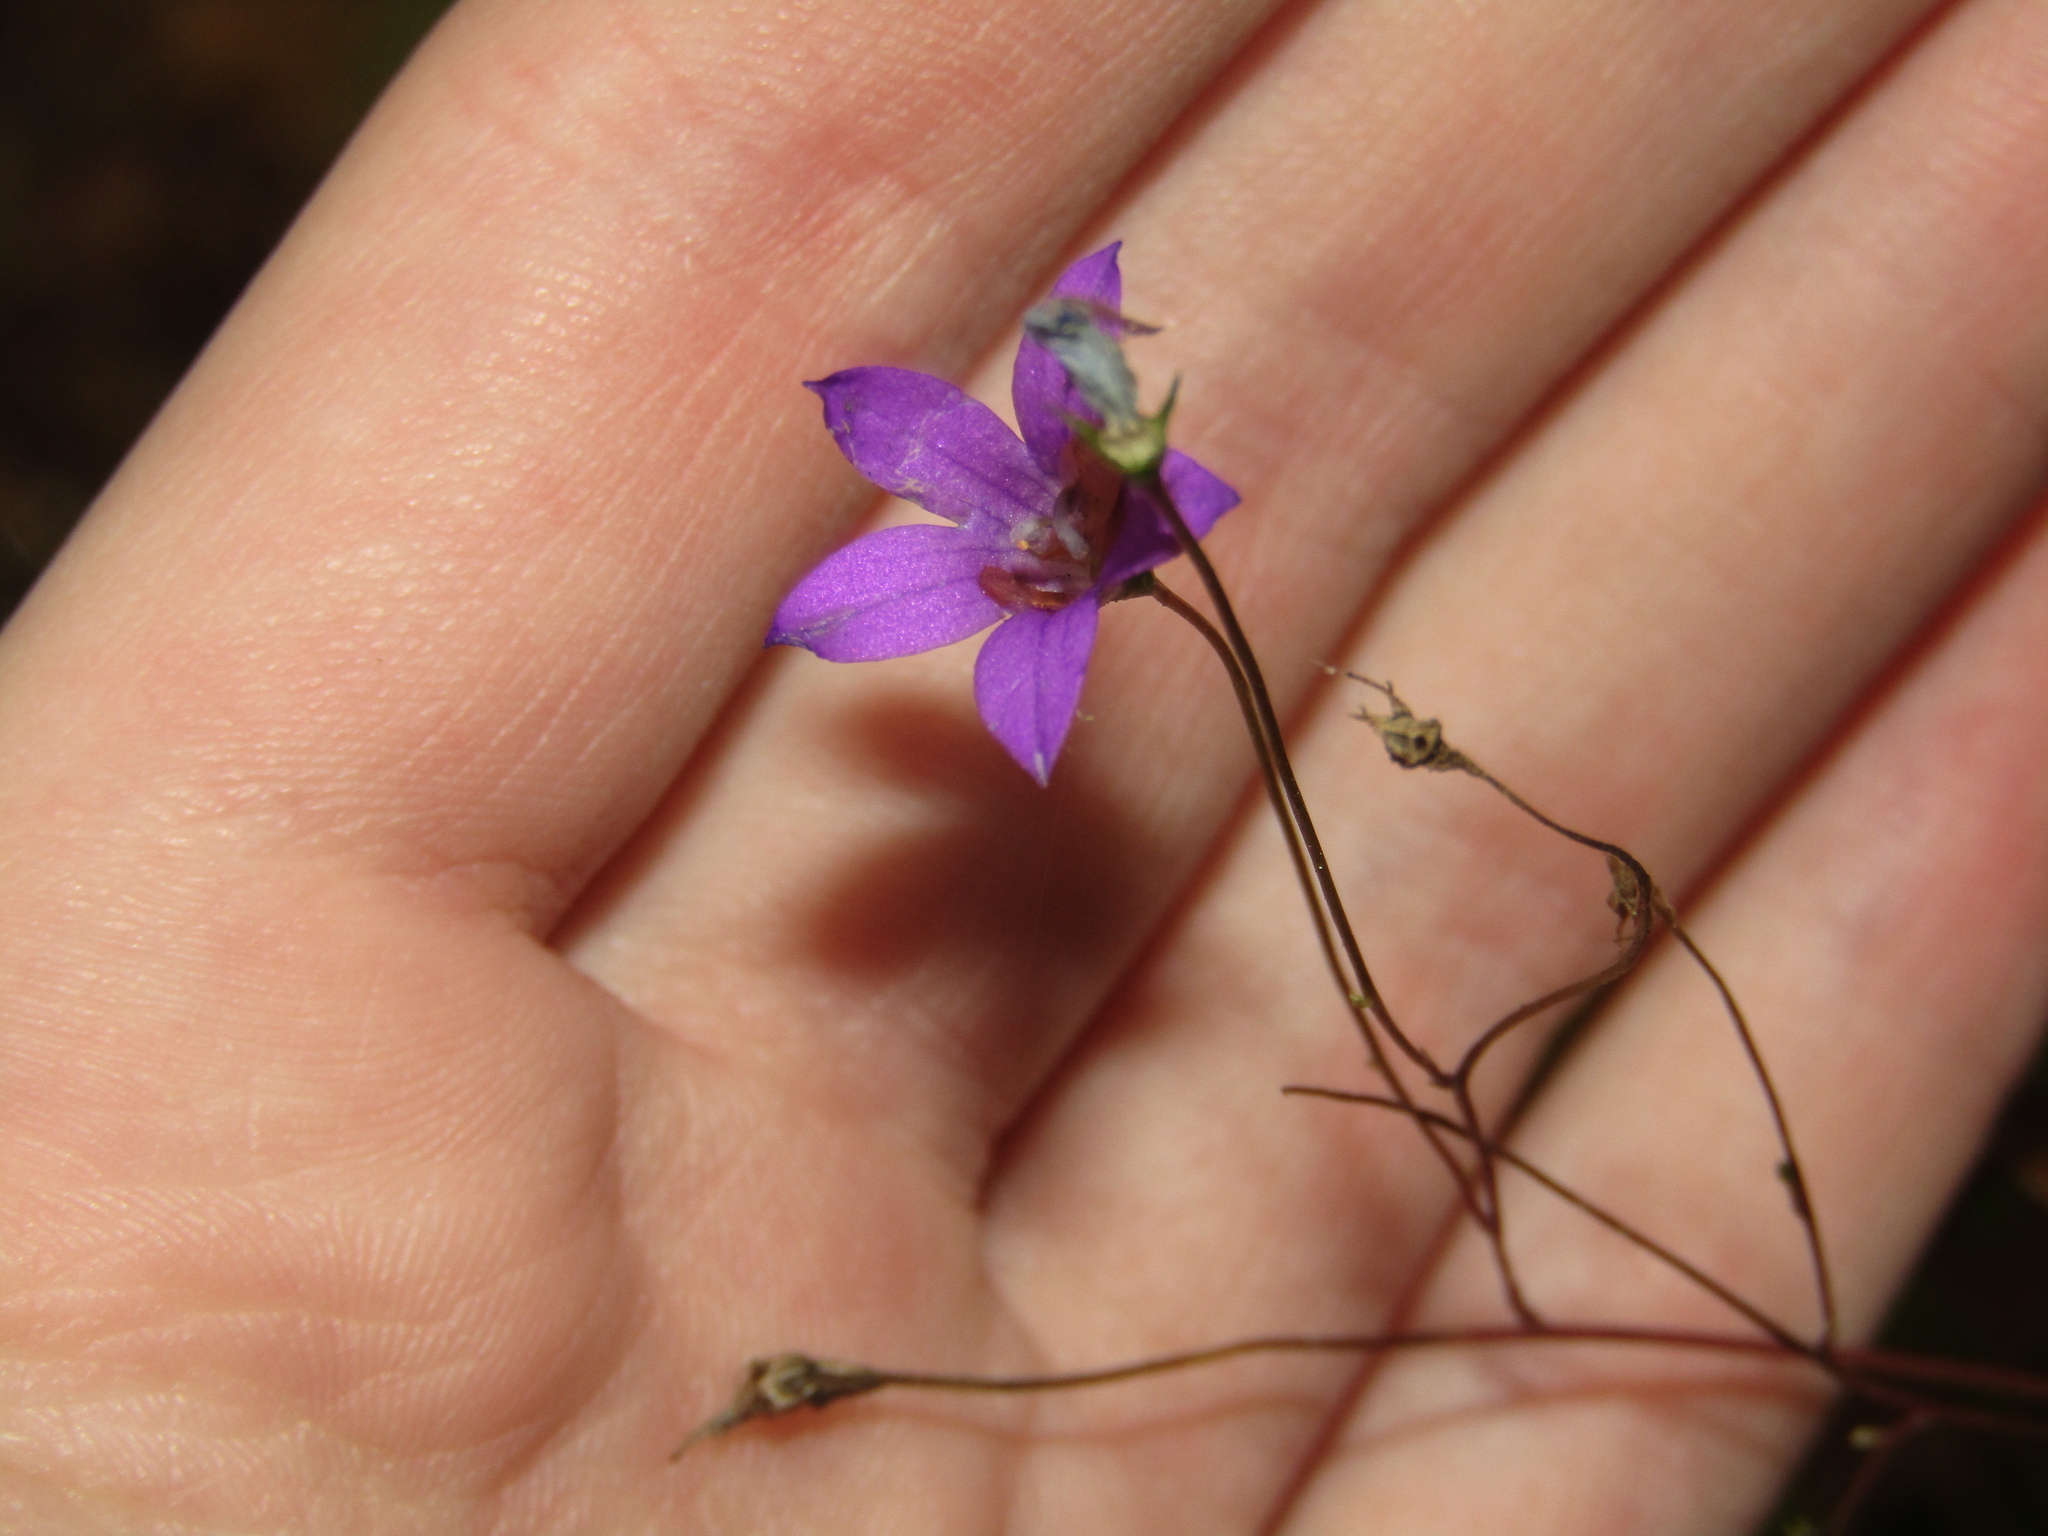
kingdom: Plantae
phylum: Tracheophyta
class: Magnoliopsida
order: Asterales
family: Campanulaceae
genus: Campanula
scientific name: Campanula patula
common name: Spreading bellflower
